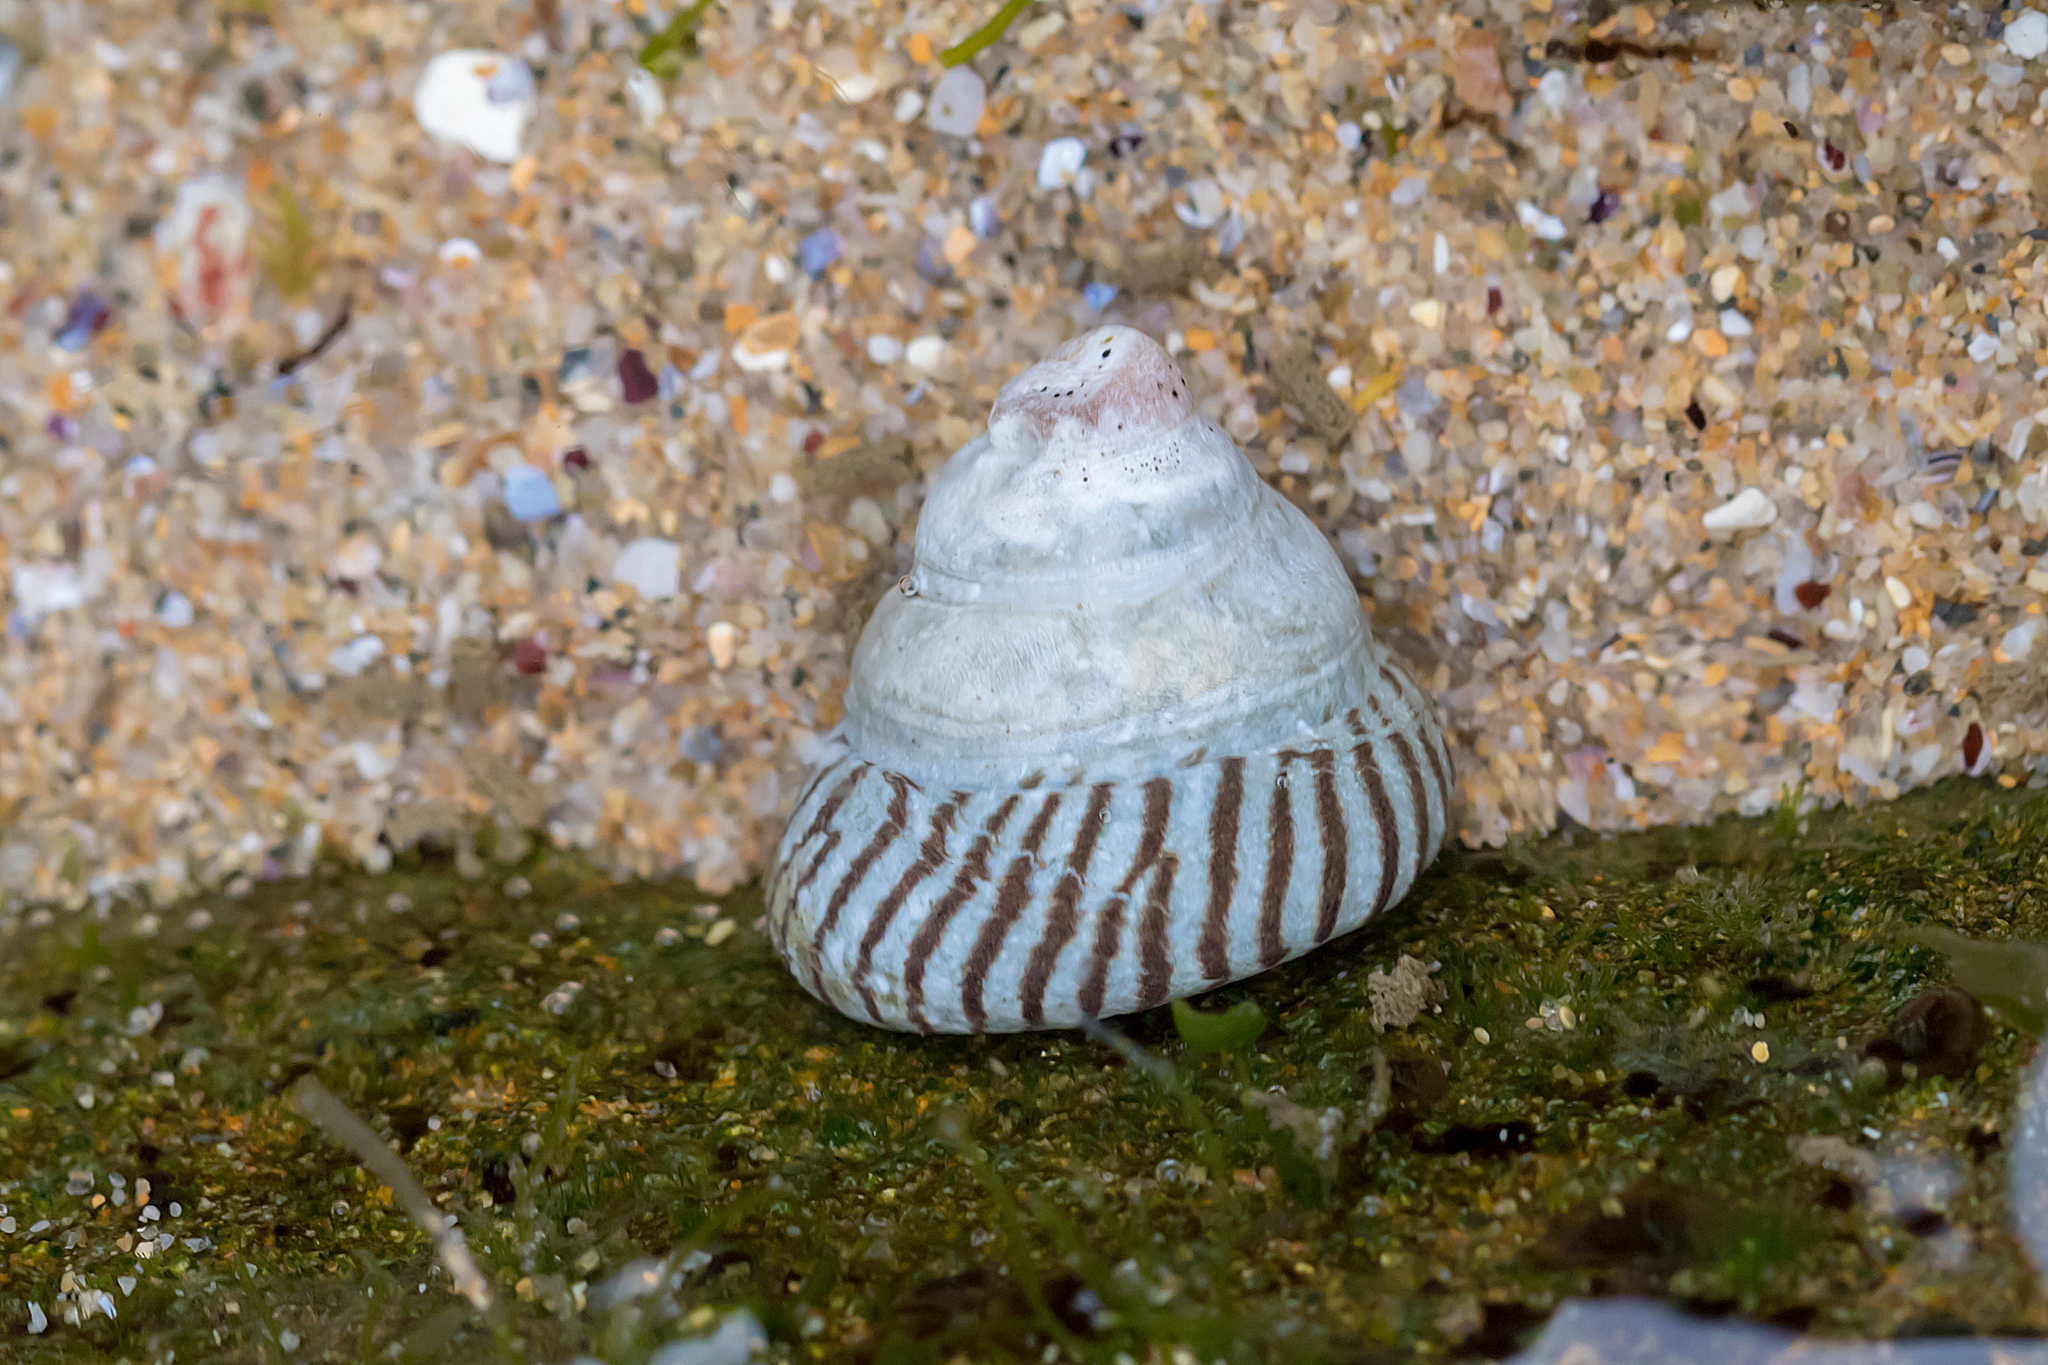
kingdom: Animalia
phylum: Mollusca
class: Gastropoda
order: Littorinimorpha
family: Littorinidae
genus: Bembicium
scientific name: Bembicium nanum
